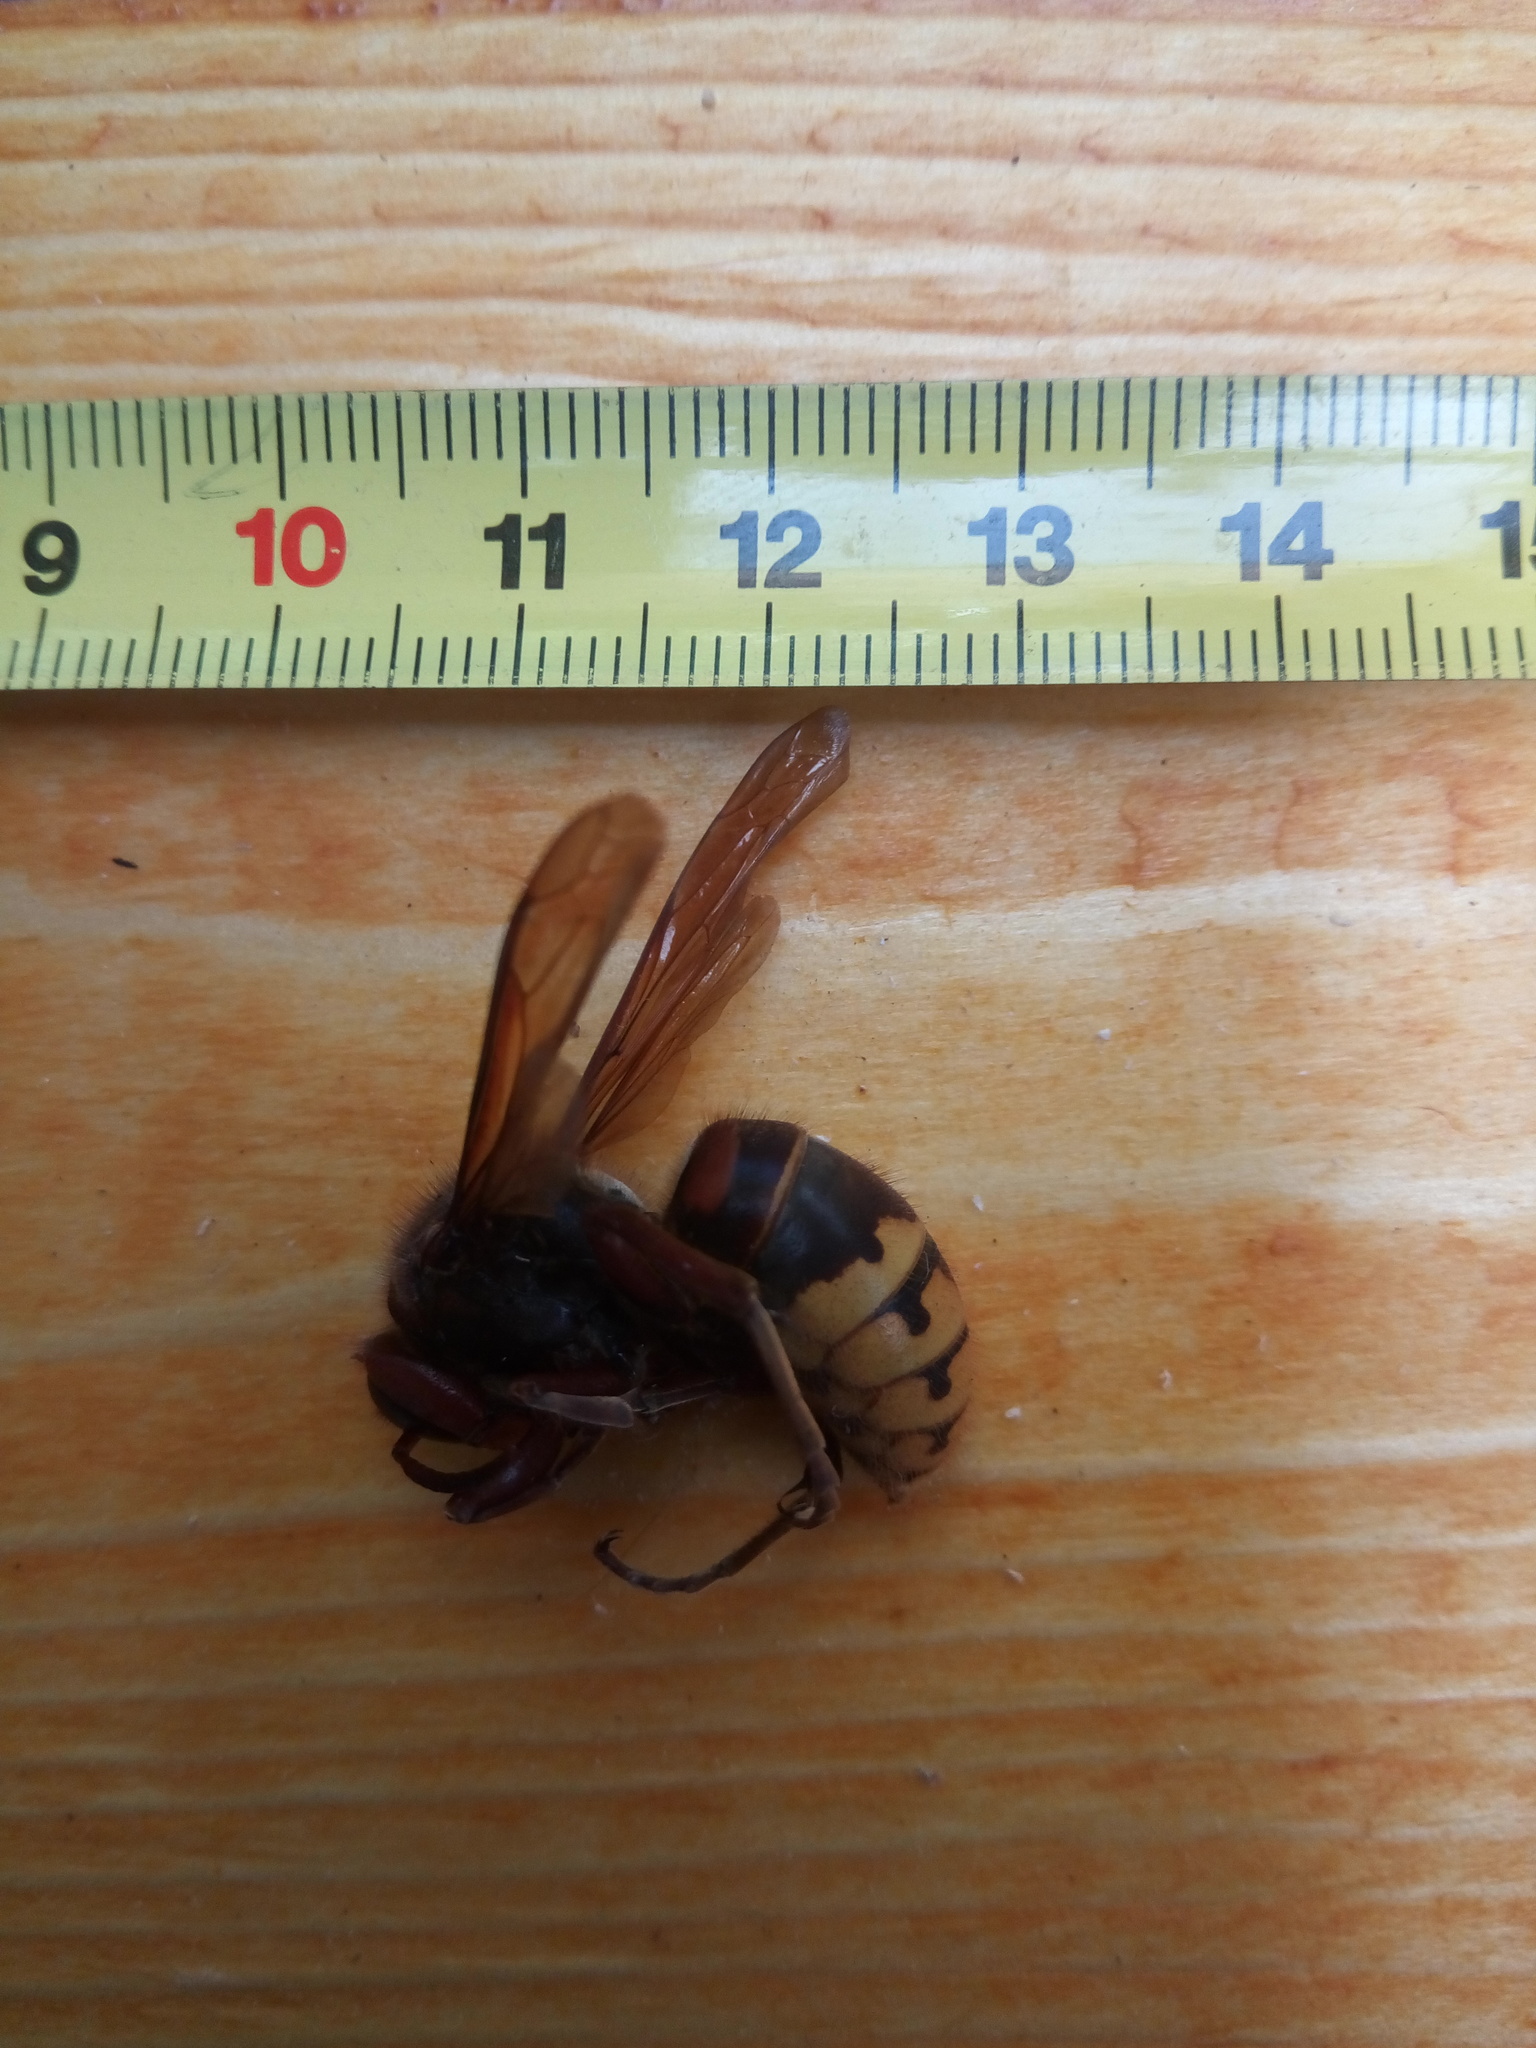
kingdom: Animalia
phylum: Arthropoda
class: Insecta
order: Hymenoptera
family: Vespidae
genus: Vespa
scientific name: Vespa crabro
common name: Hornet
